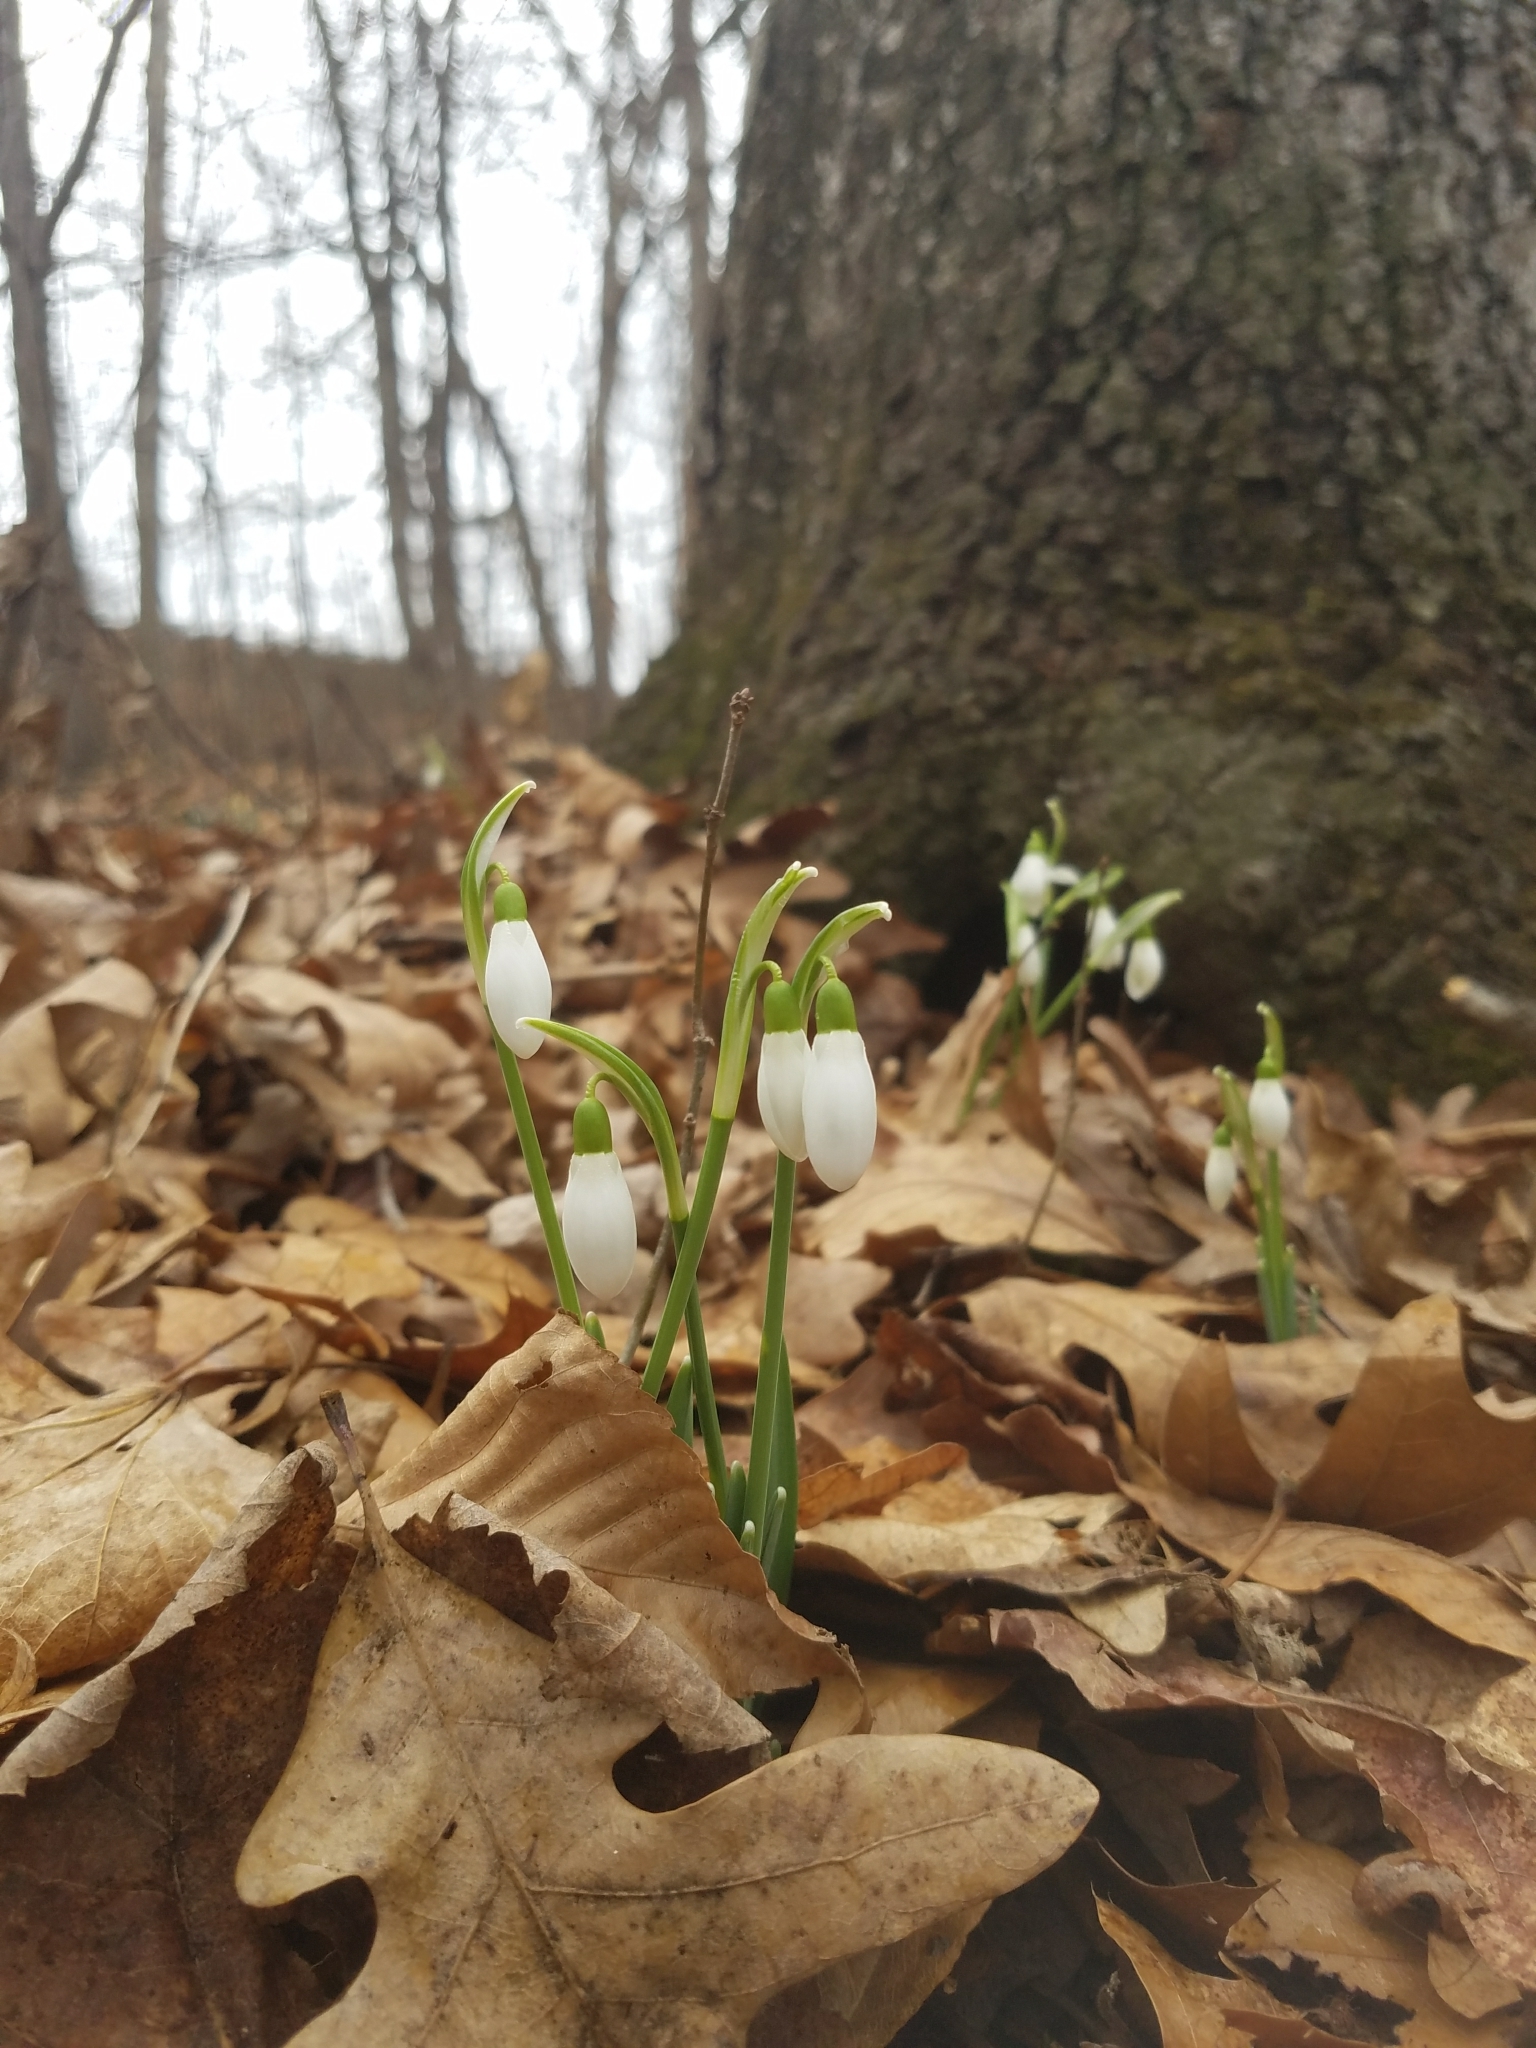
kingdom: Plantae
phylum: Tracheophyta
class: Liliopsida
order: Asparagales
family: Amaryllidaceae
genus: Galanthus
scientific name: Galanthus nivalis
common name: Snowdrop
